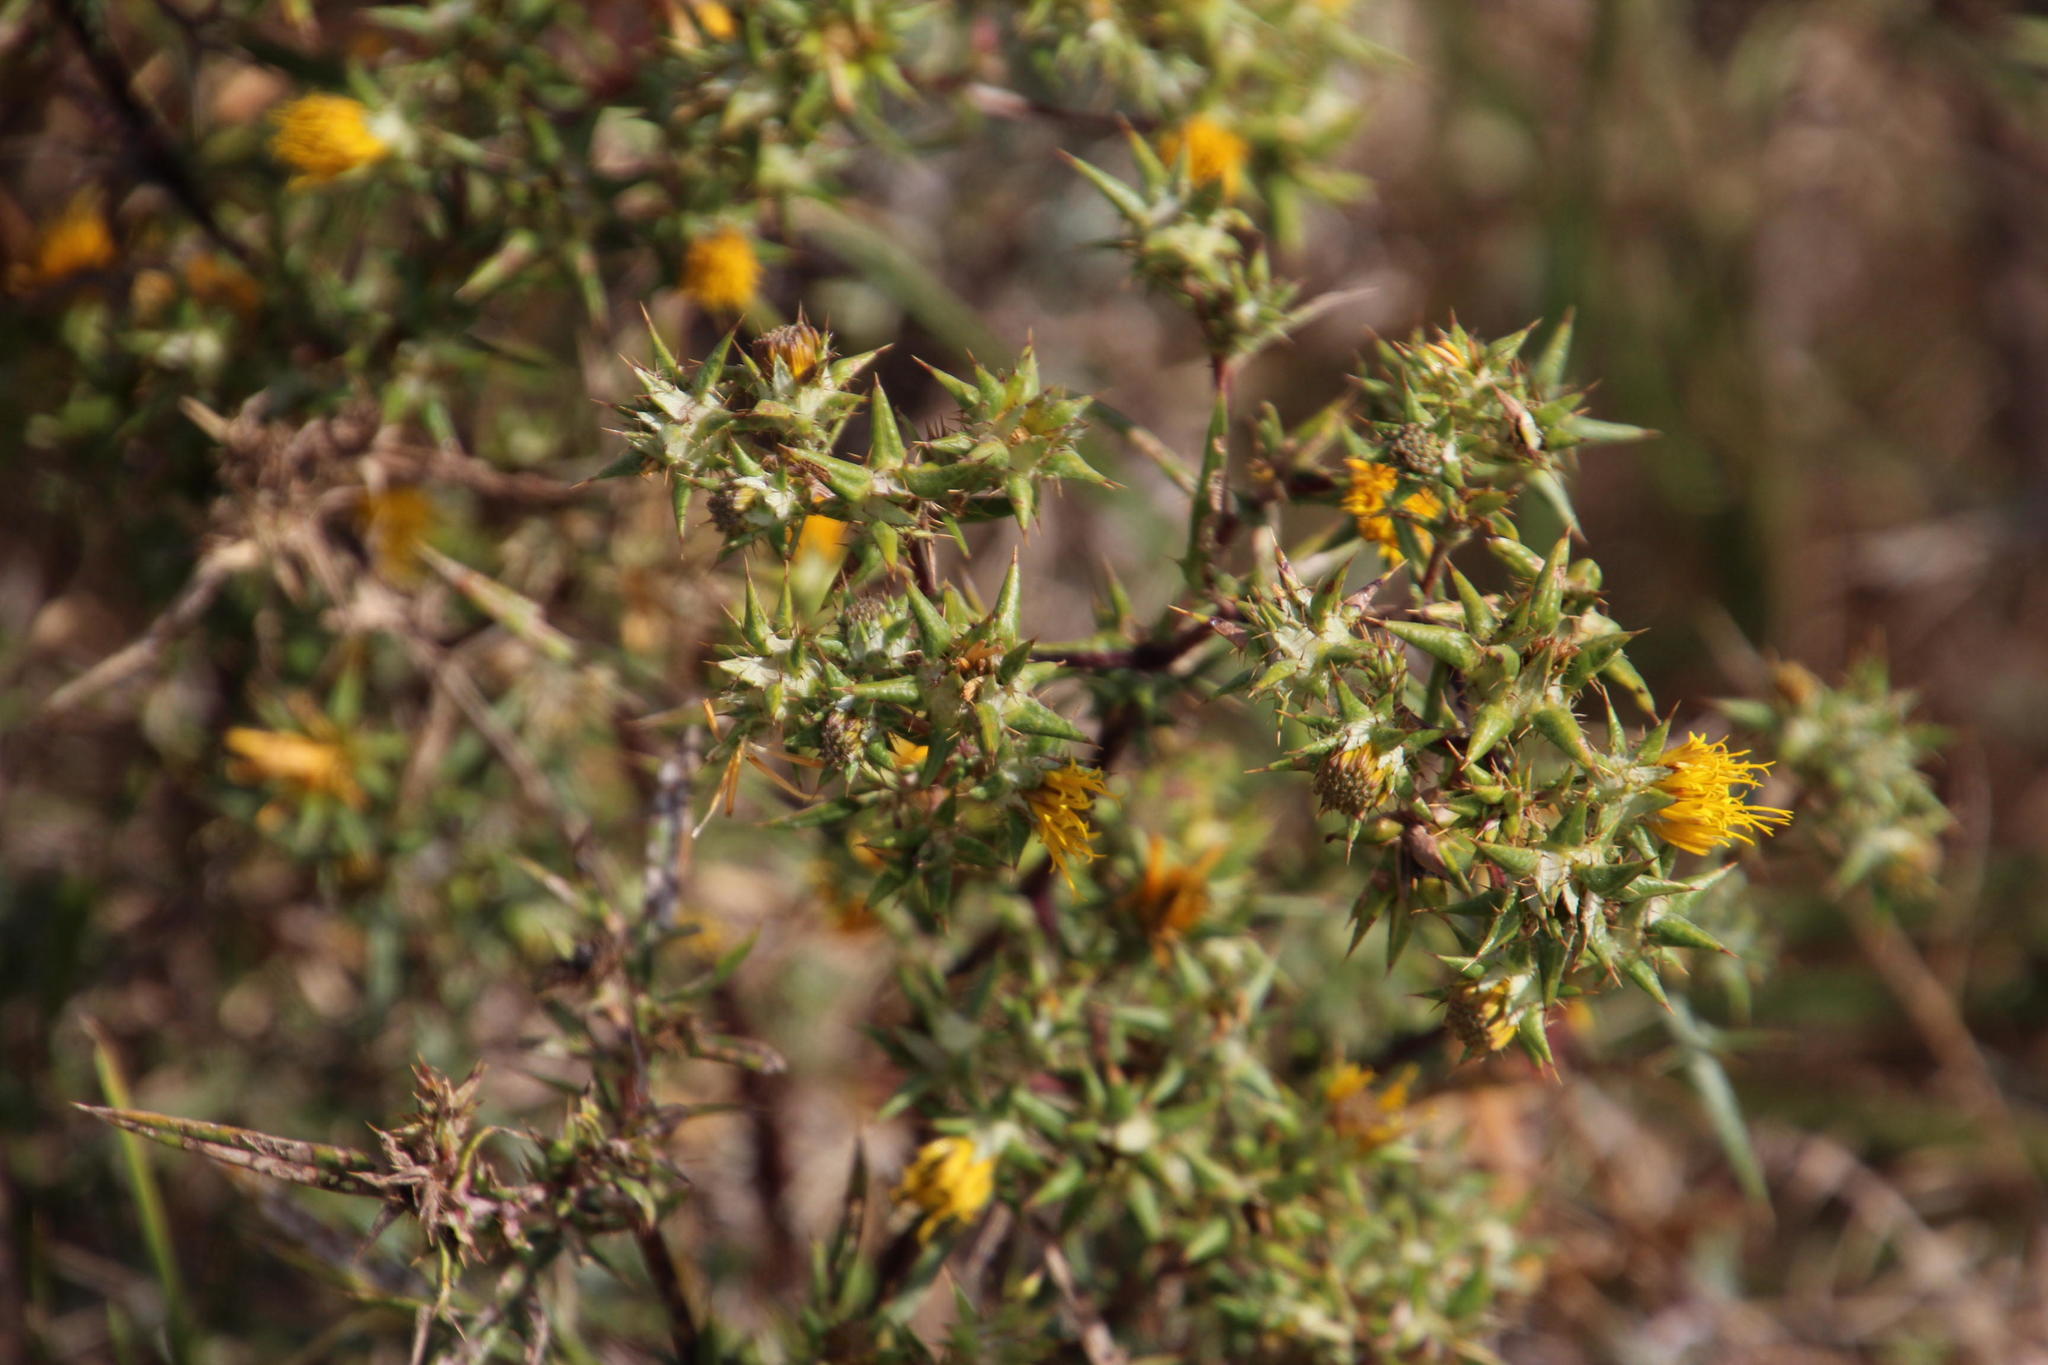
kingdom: Plantae
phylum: Tracheophyta
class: Magnoliopsida
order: Asterales
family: Asteraceae
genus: Berkheya
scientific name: Berkheya rigida
